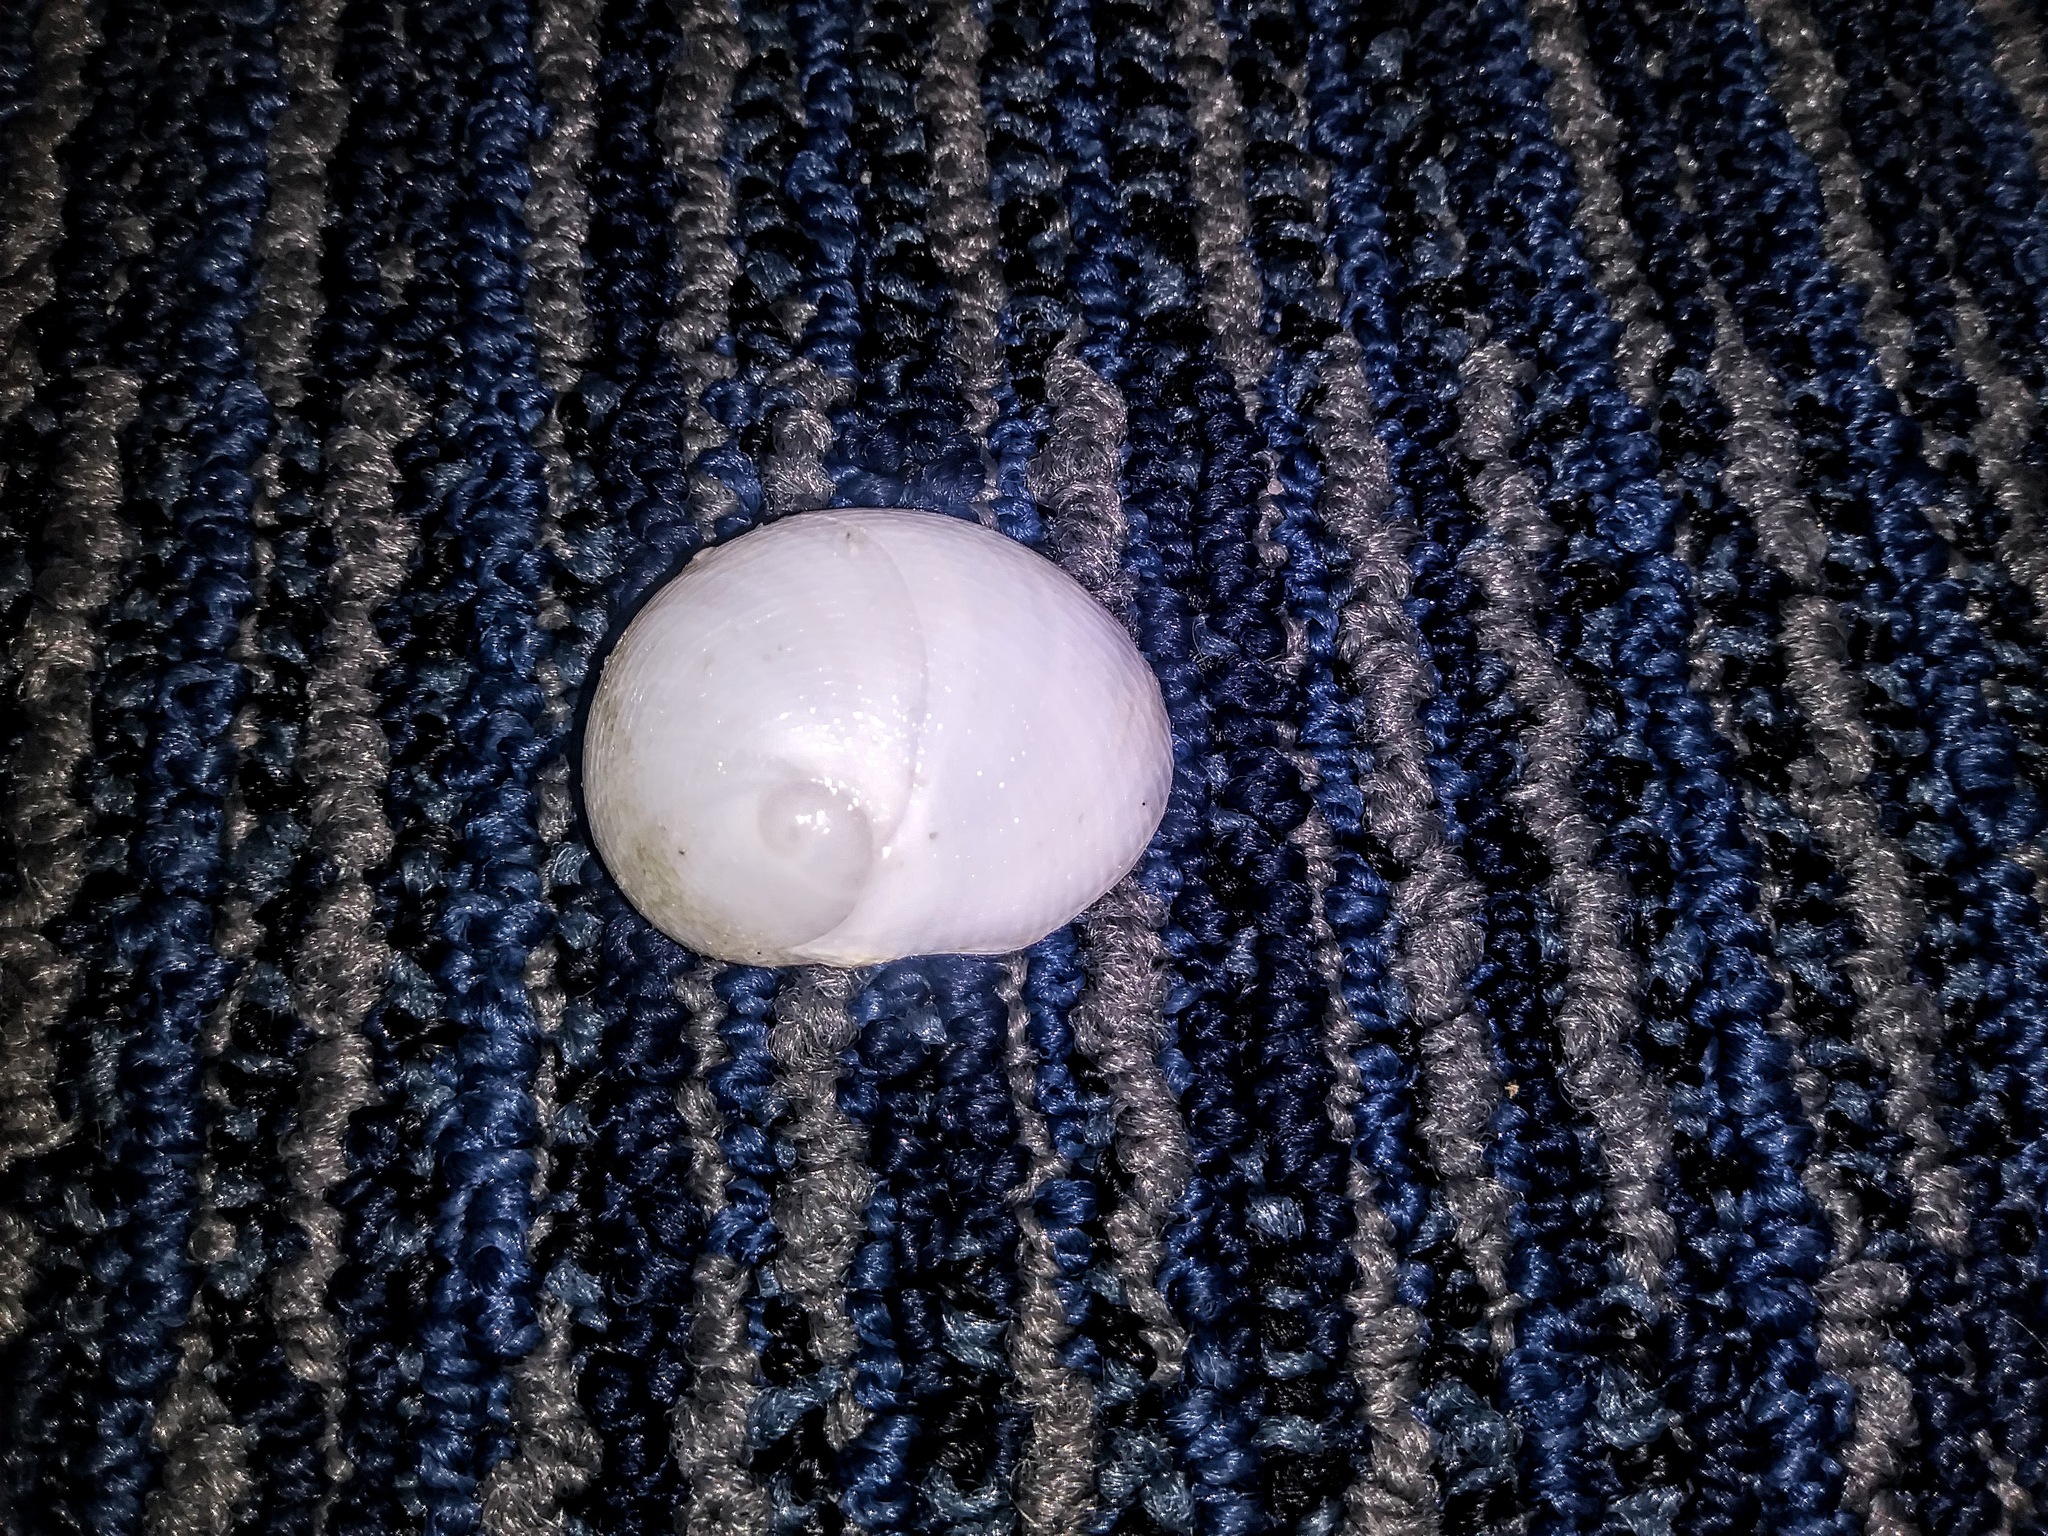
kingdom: Animalia
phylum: Mollusca
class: Gastropoda
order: Littorinimorpha
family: Naticidae
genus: Sinum
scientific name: Sinum perspectivum
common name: White baby ear
